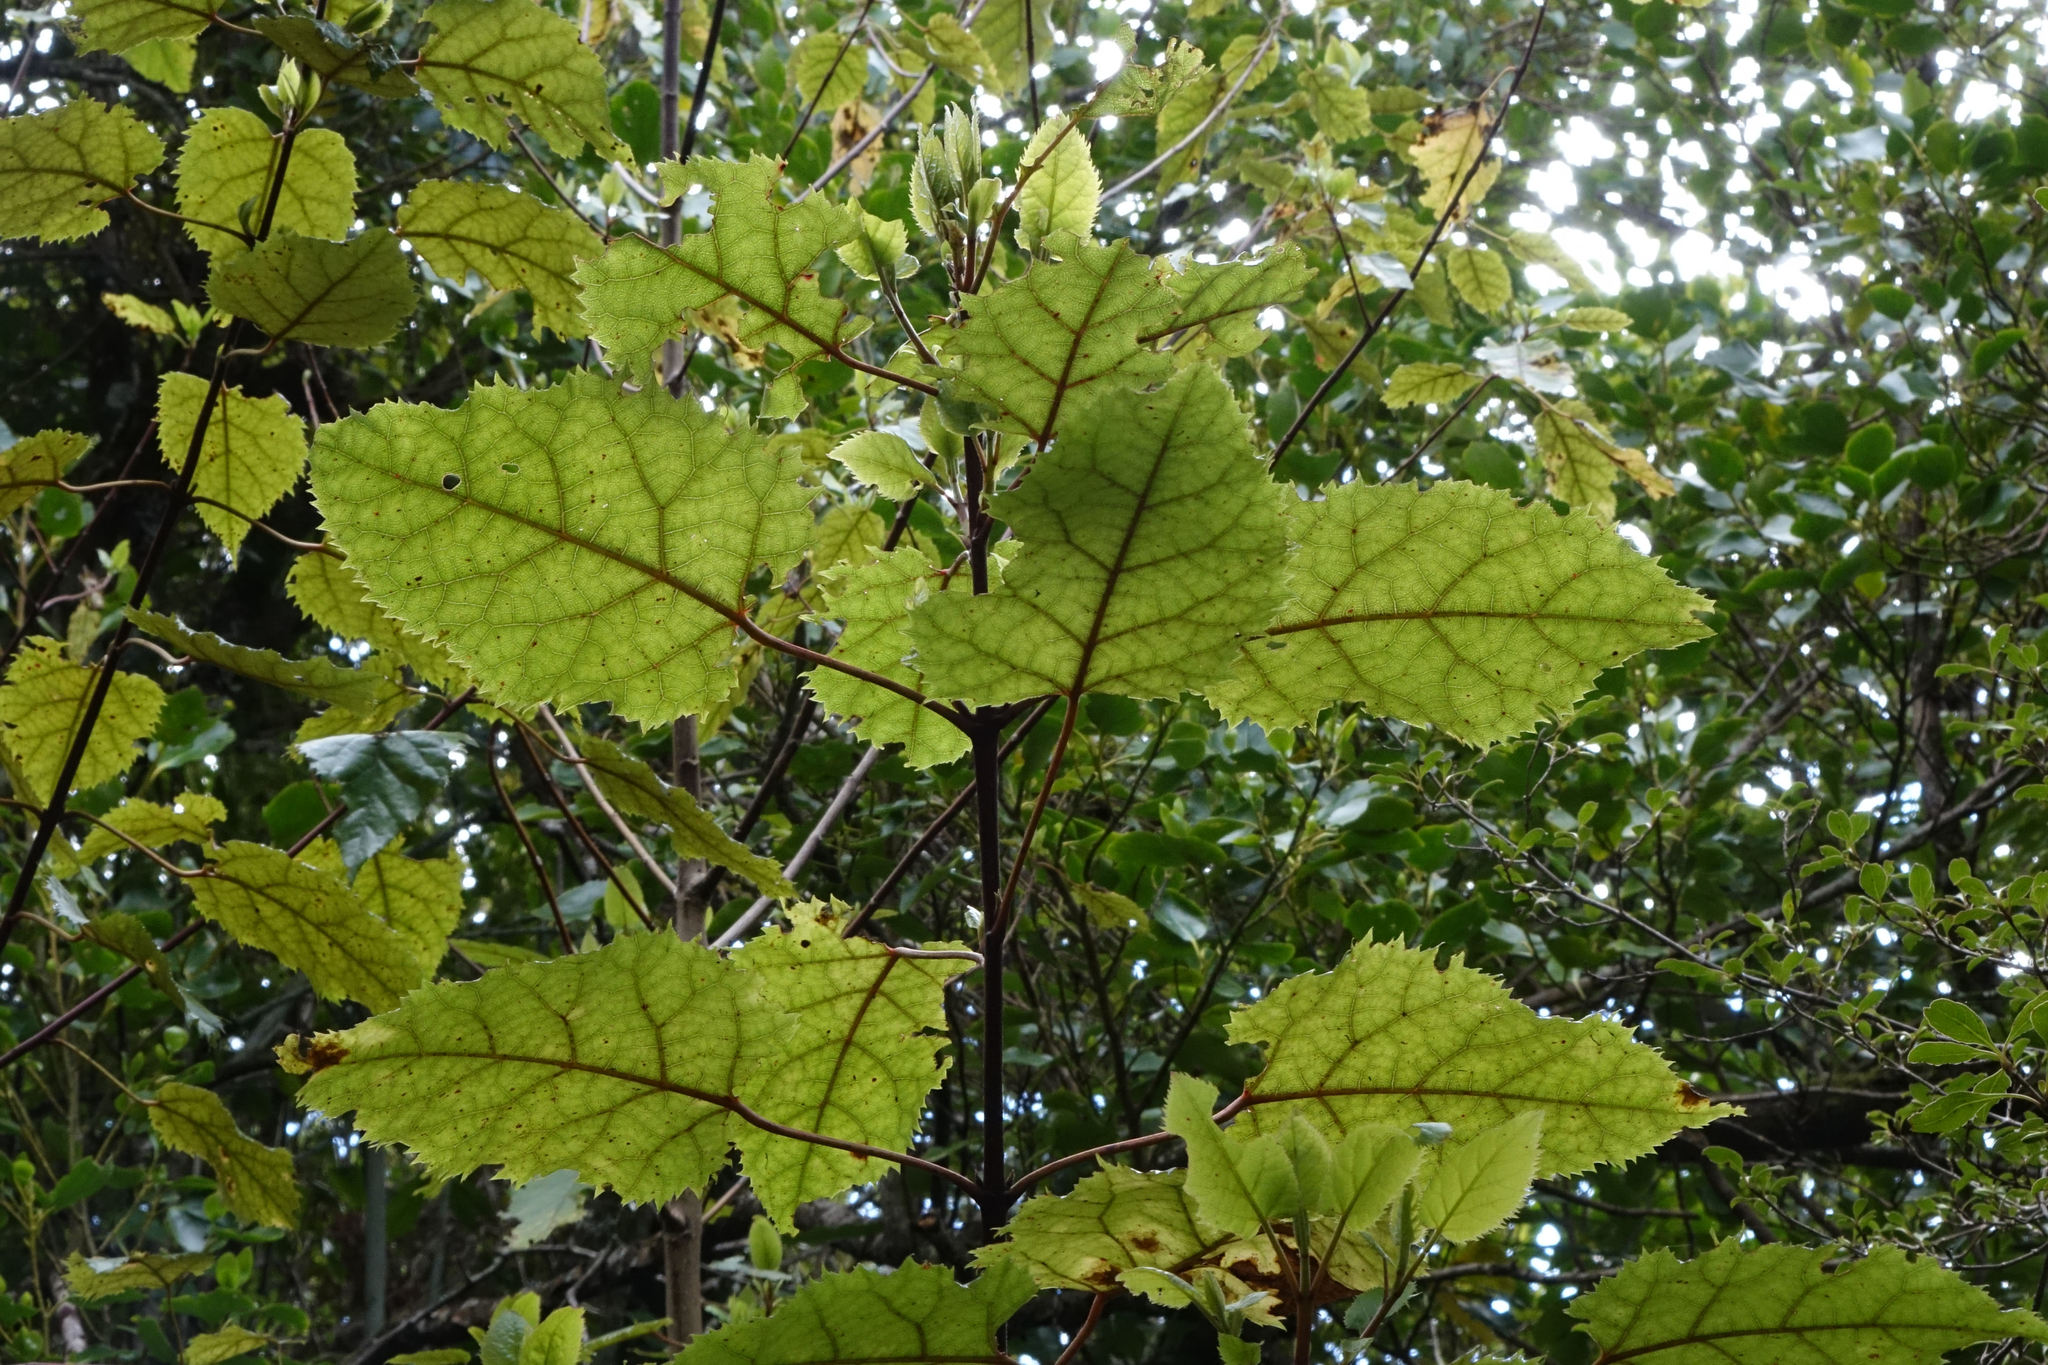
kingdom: Plantae
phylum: Tracheophyta
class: Magnoliopsida
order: Oxalidales
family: Elaeocarpaceae
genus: Aristotelia
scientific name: Aristotelia serrata
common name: New zealand wineberry
